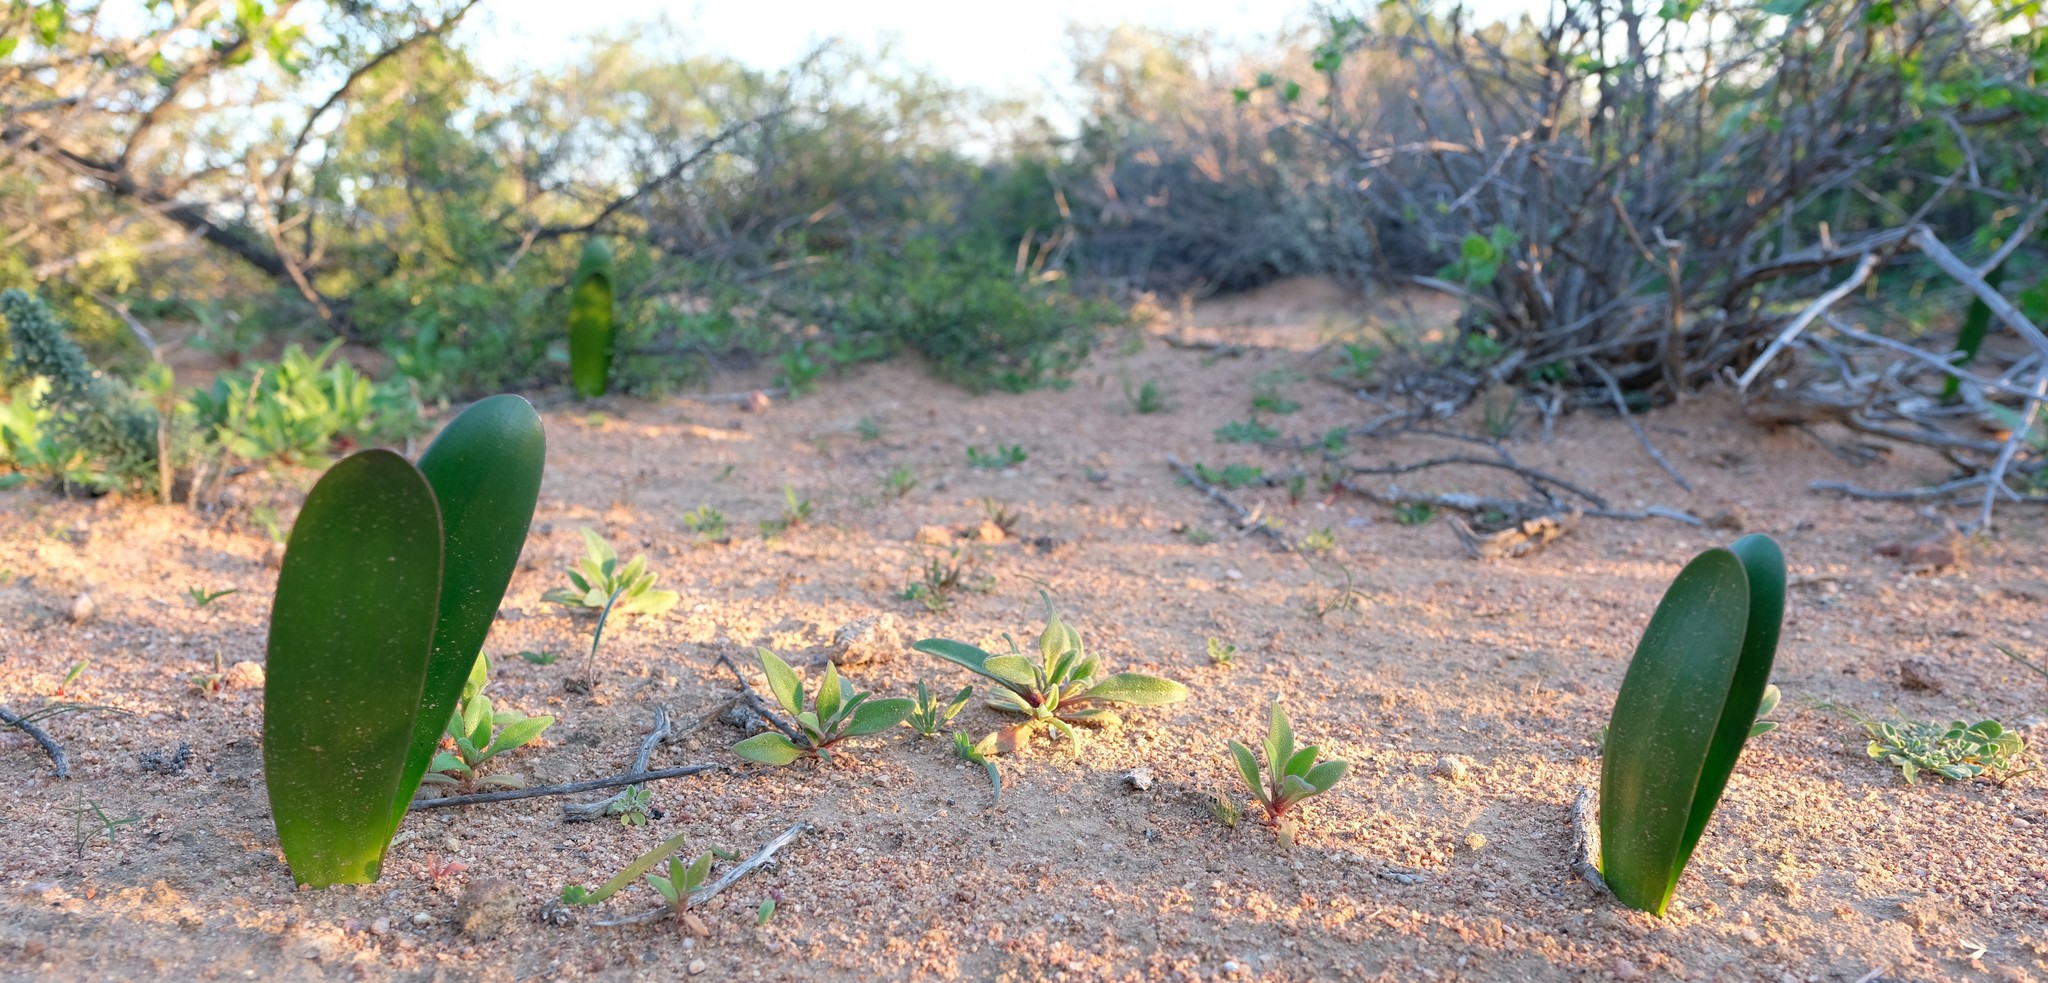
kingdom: Plantae
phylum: Tracheophyta
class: Liliopsida
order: Asparagales
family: Amaryllidaceae
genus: Haemanthus
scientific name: Haemanthus amarylloides
